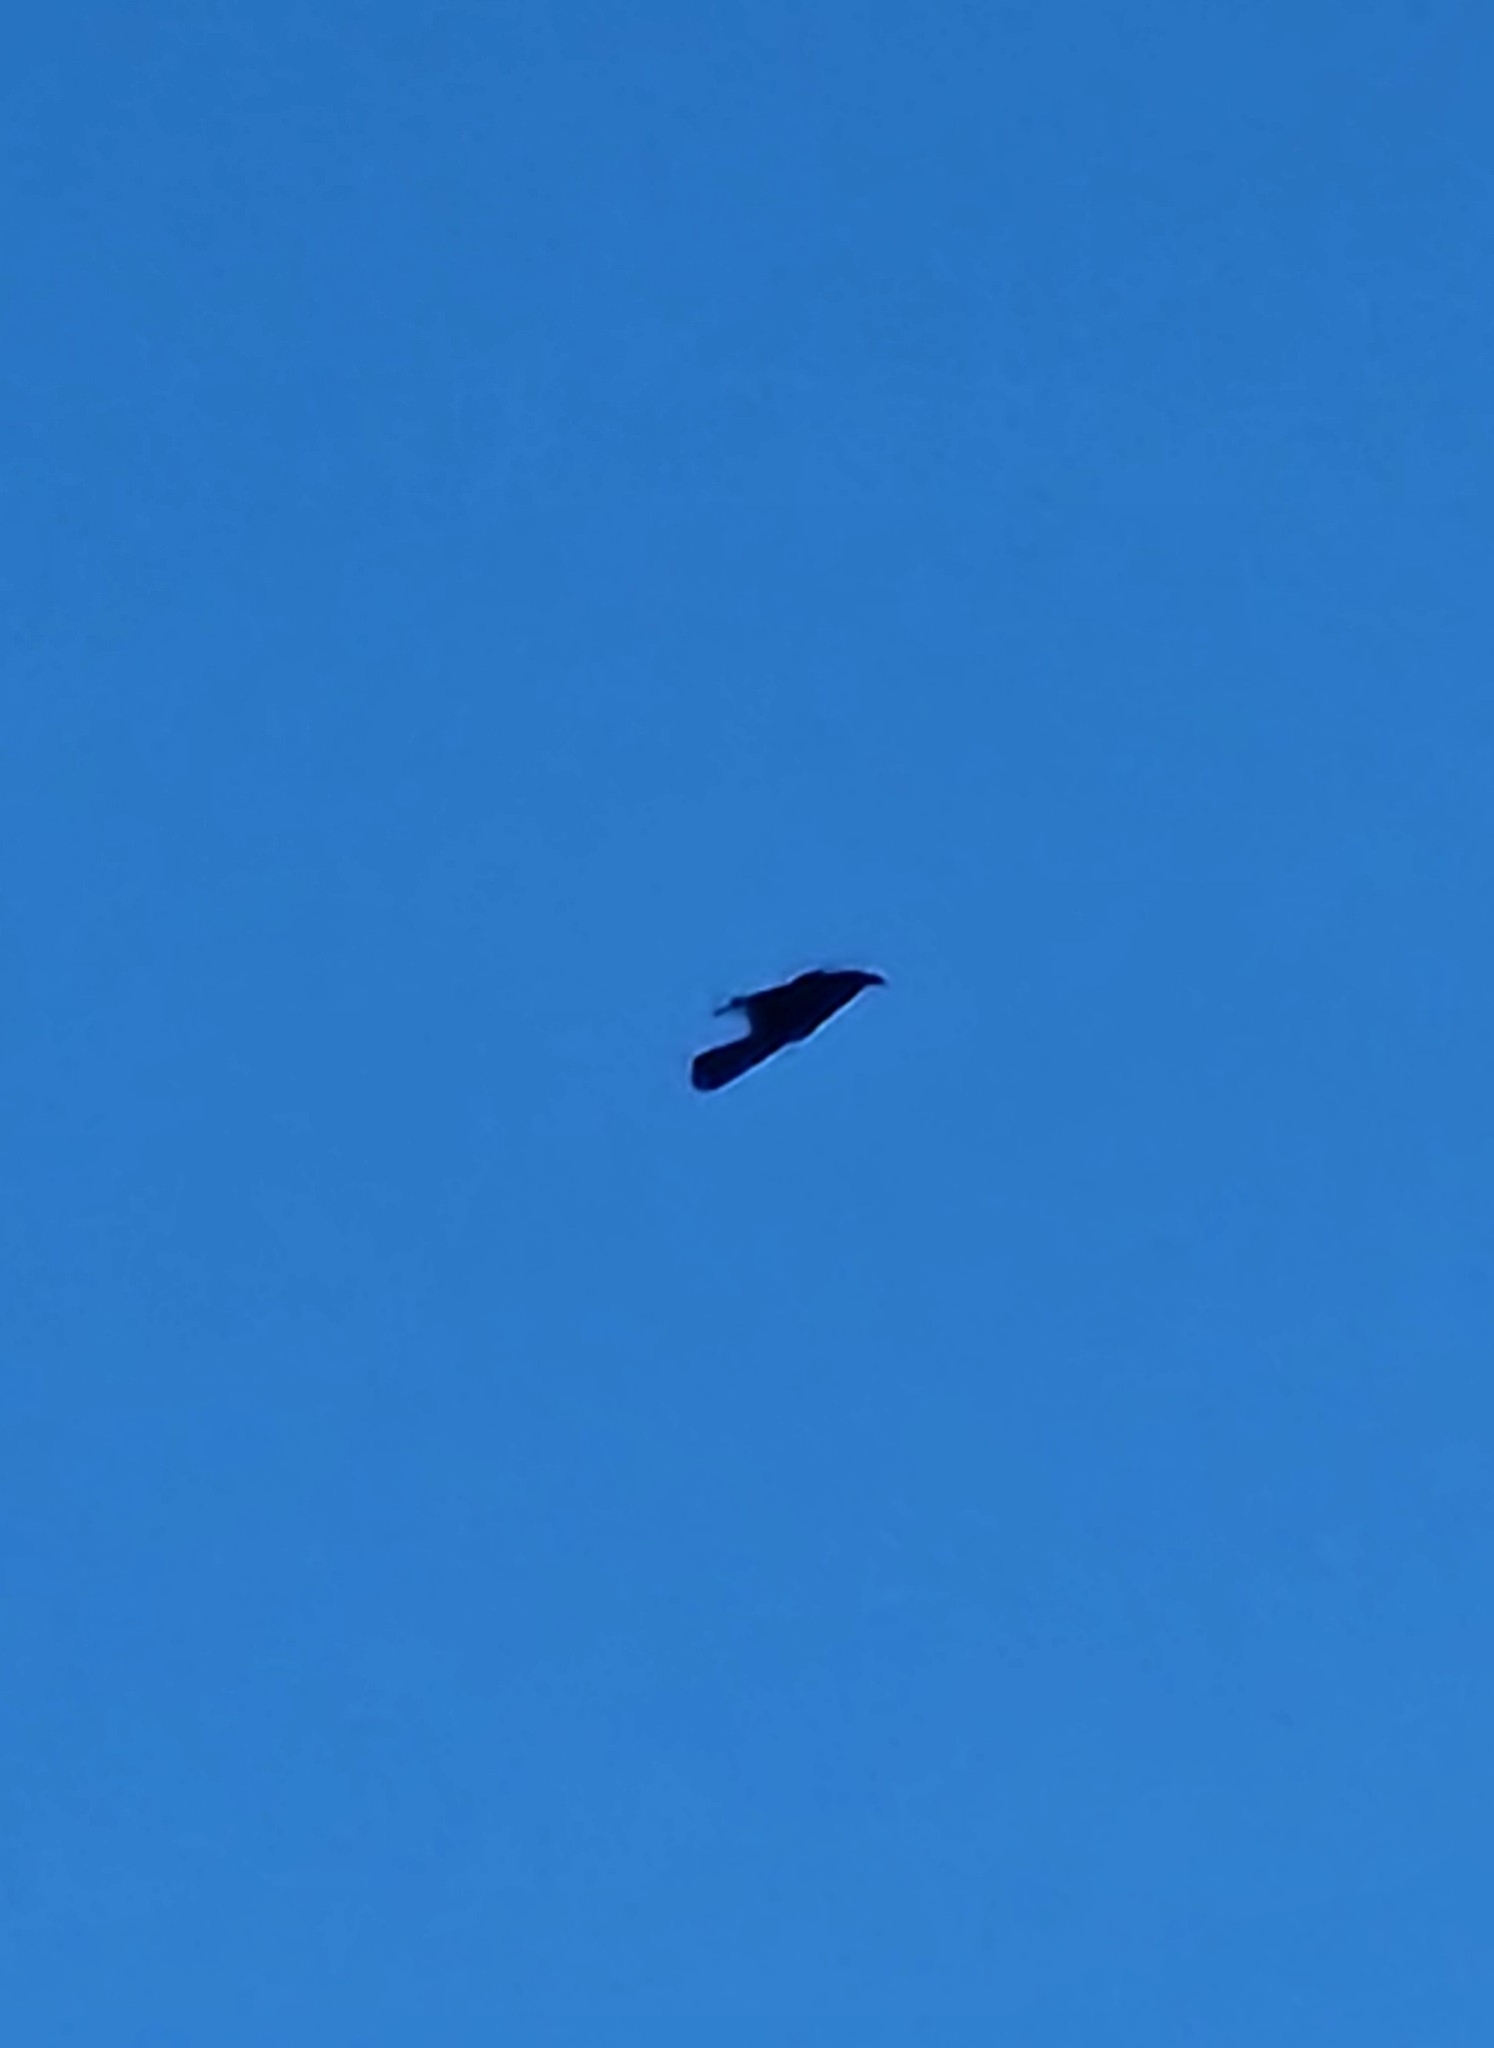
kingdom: Animalia
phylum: Chordata
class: Aves
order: Passeriformes
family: Corvidae
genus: Corvus
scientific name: Corvus corax
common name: Common raven
